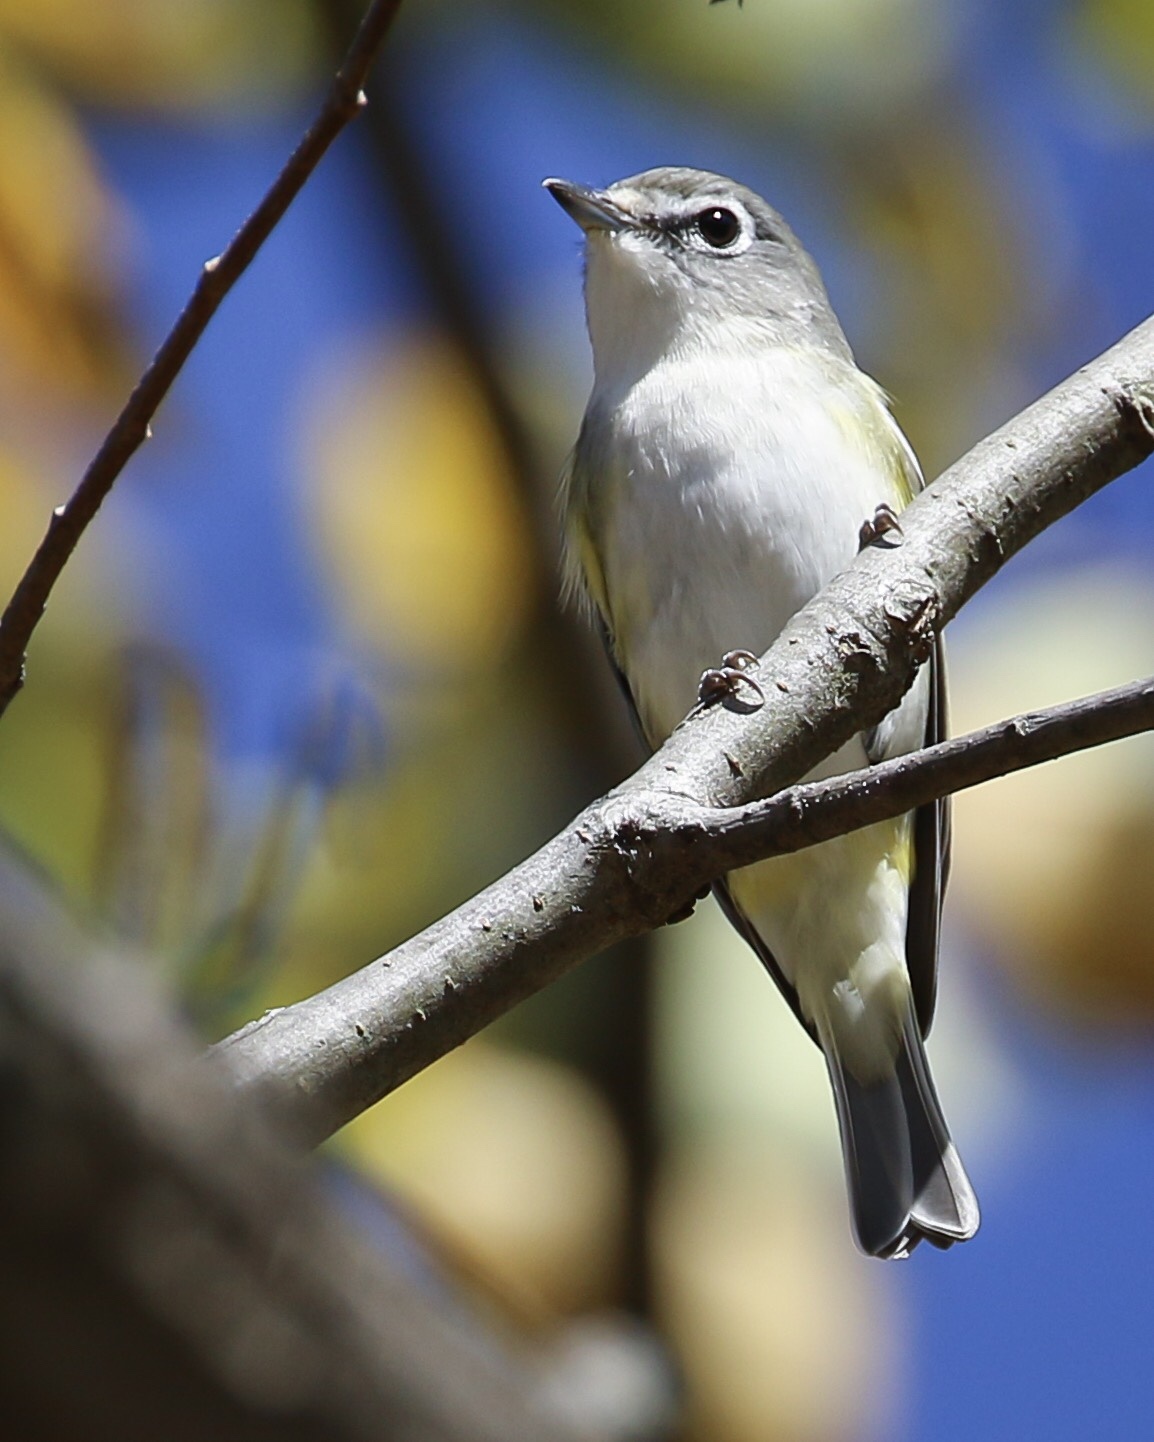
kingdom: Animalia
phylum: Chordata
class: Aves
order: Passeriformes
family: Vireonidae
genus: Vireo
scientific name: Vireo solitarius
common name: Blue-headed vireo
